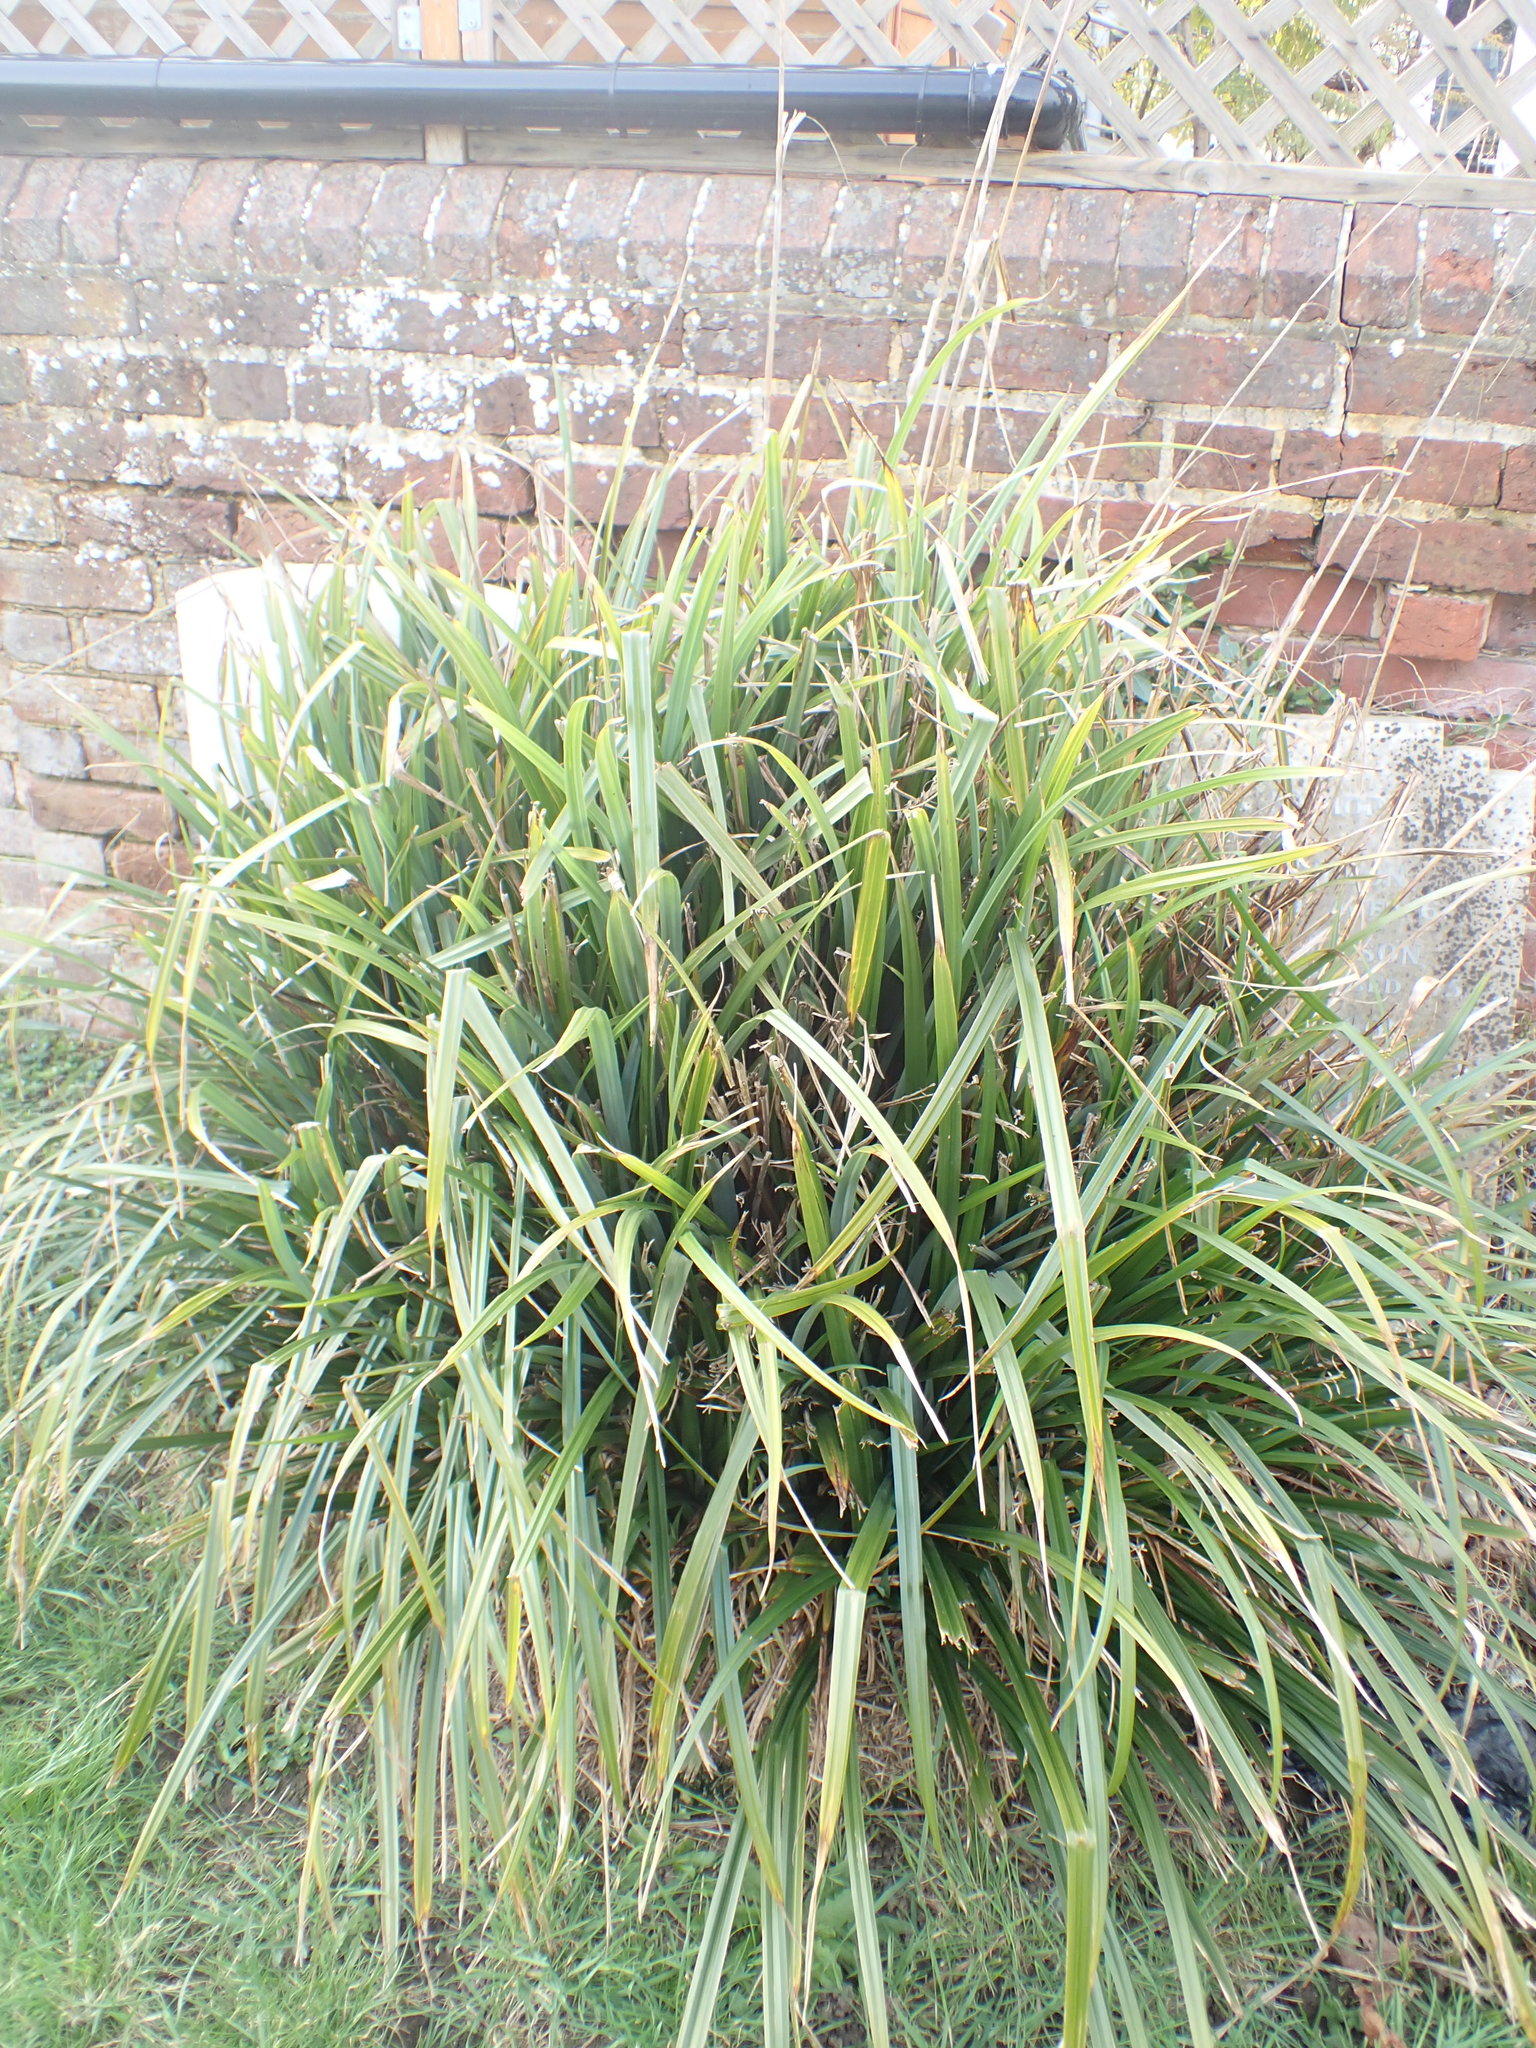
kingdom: Plantae
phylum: Tracheophyta
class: Liliopsida
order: Poales
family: Cyperaceae
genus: Carex
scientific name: Carex pendula
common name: Pendulous sedge
